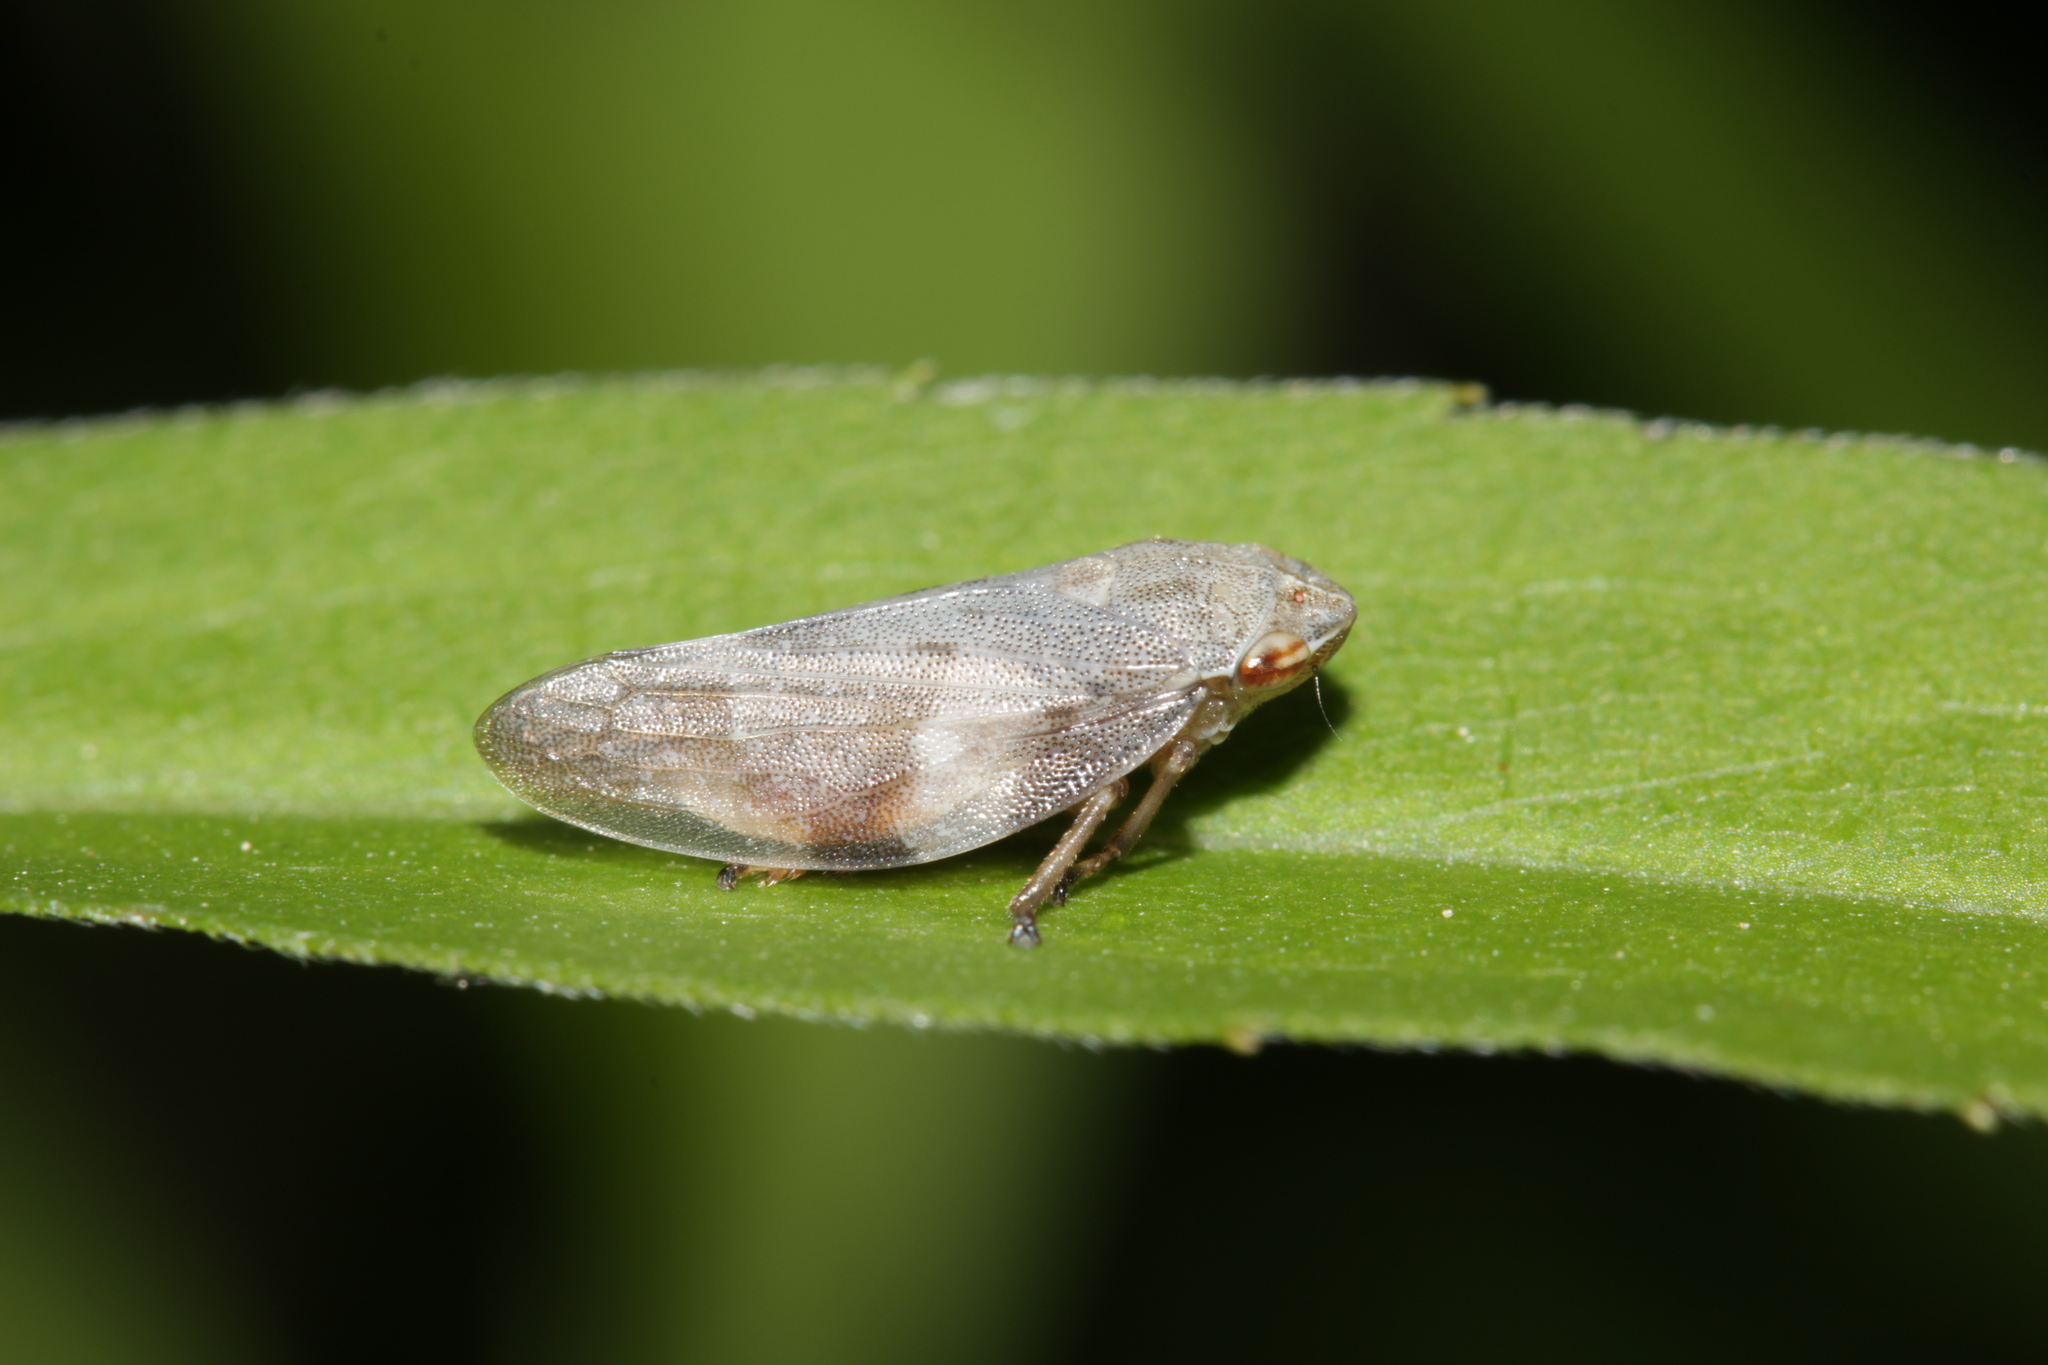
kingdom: Animalia
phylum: Arthropoda
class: Insecta
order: Hemiptera
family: Aphrophoridae
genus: Aphrophora
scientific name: Aphrophora alni
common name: European alder spittlebug
